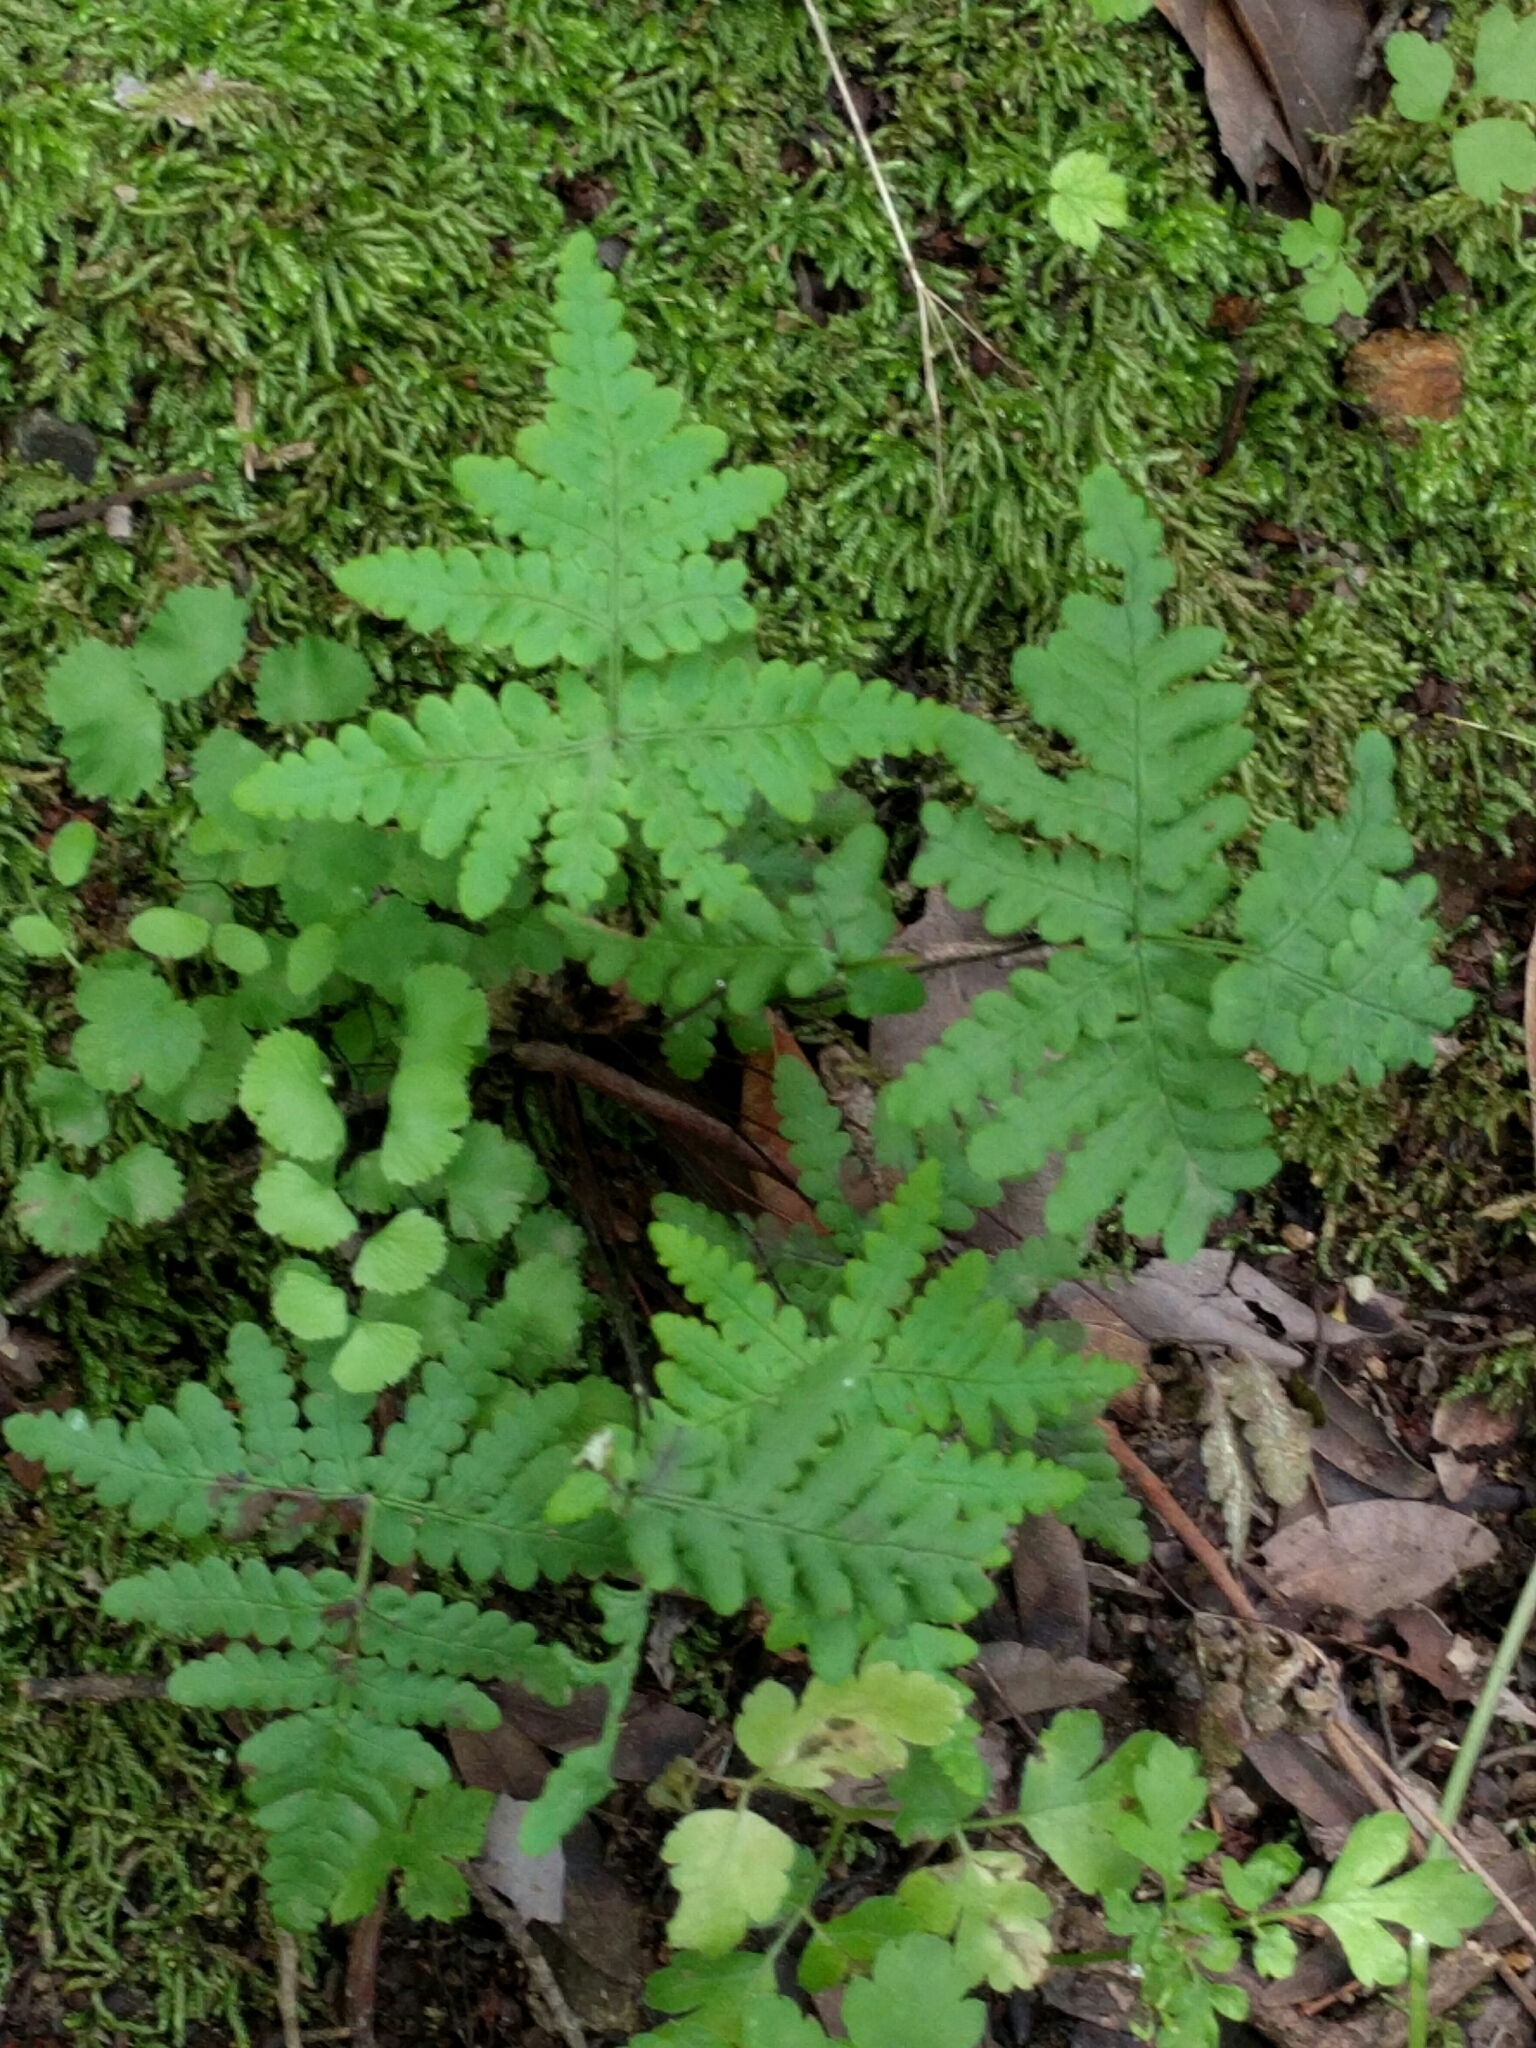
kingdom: Plantae
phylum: Tracheophyta
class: Polypodiopsida
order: Polypodiales
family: Pteridaceae
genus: Pentagramma
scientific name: Pentagramma triangularis
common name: Gold fern
